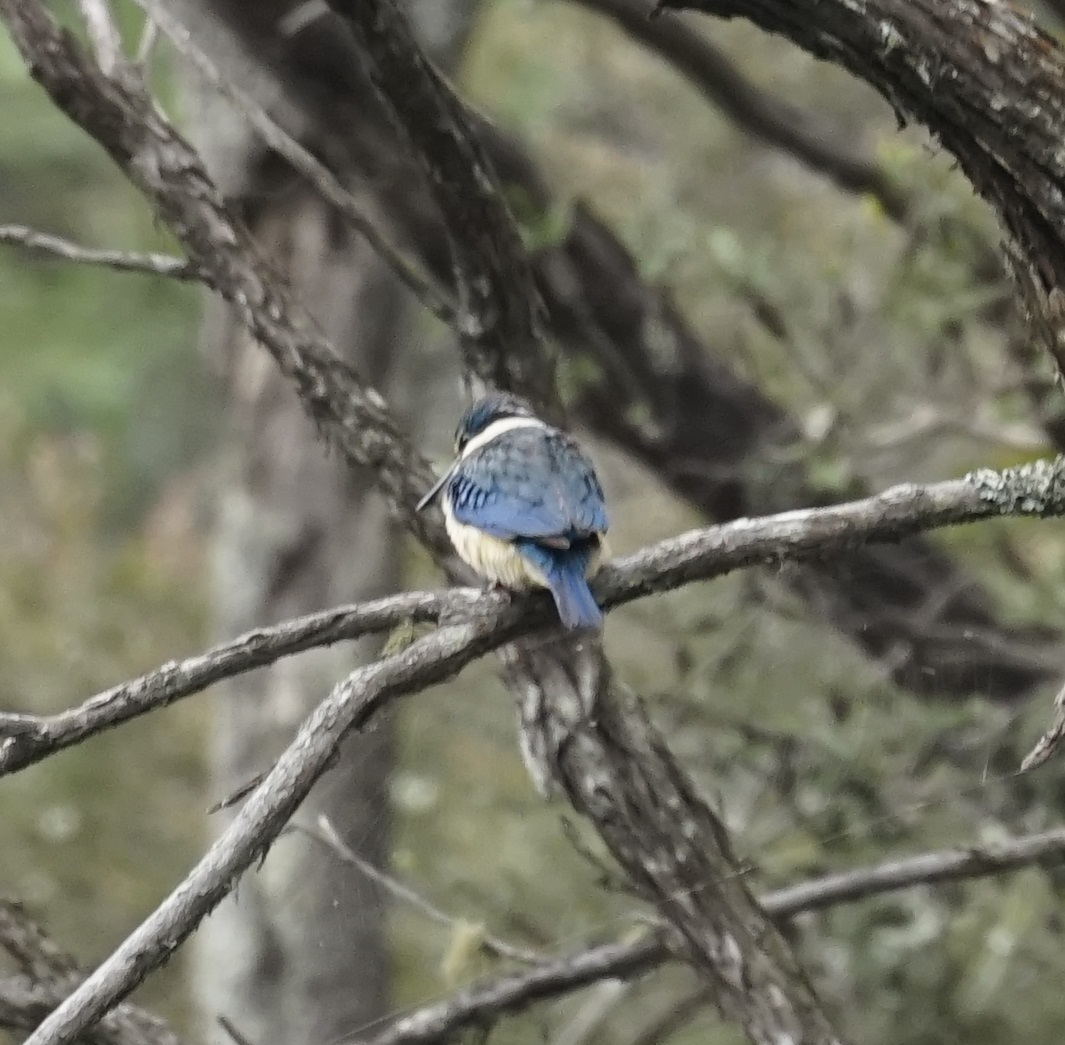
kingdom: Animalia
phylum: Chordata
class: Aves
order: Coraciiformes
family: Alcedinidae
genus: Todiramphus
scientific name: Todiramphus sanctus
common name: Sacred kingfisher
